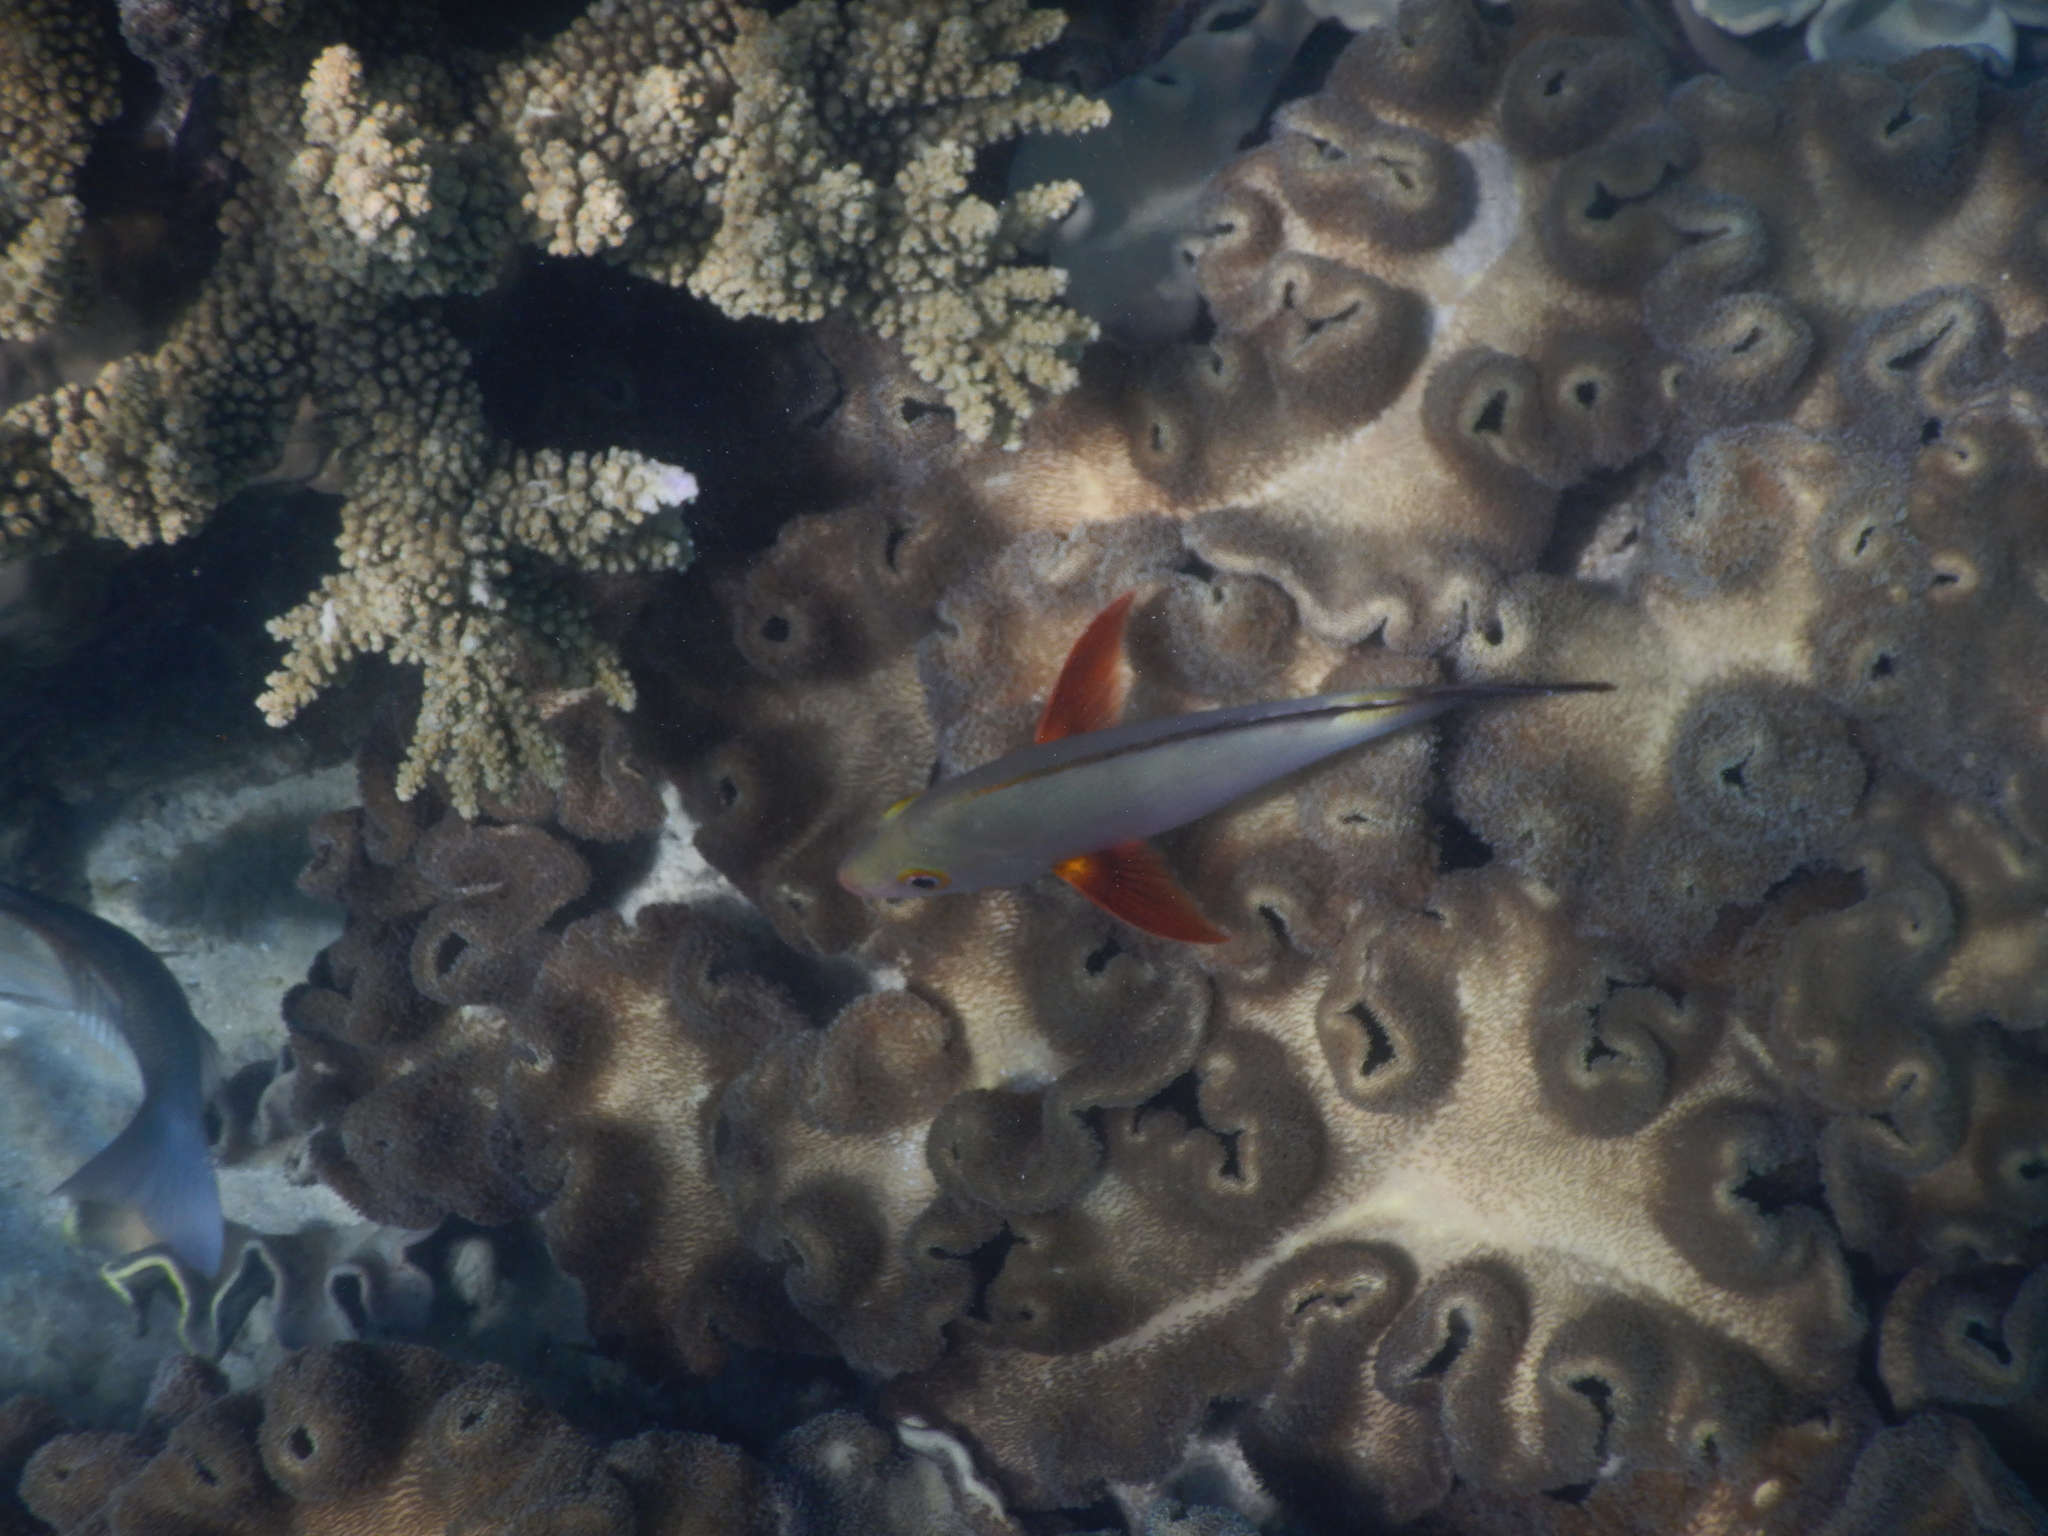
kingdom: Animalia
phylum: Chordata
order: Perciformes
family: Lutjanidae
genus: Lutjanus
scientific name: Lutjanus gibbus
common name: Humpback snapper
